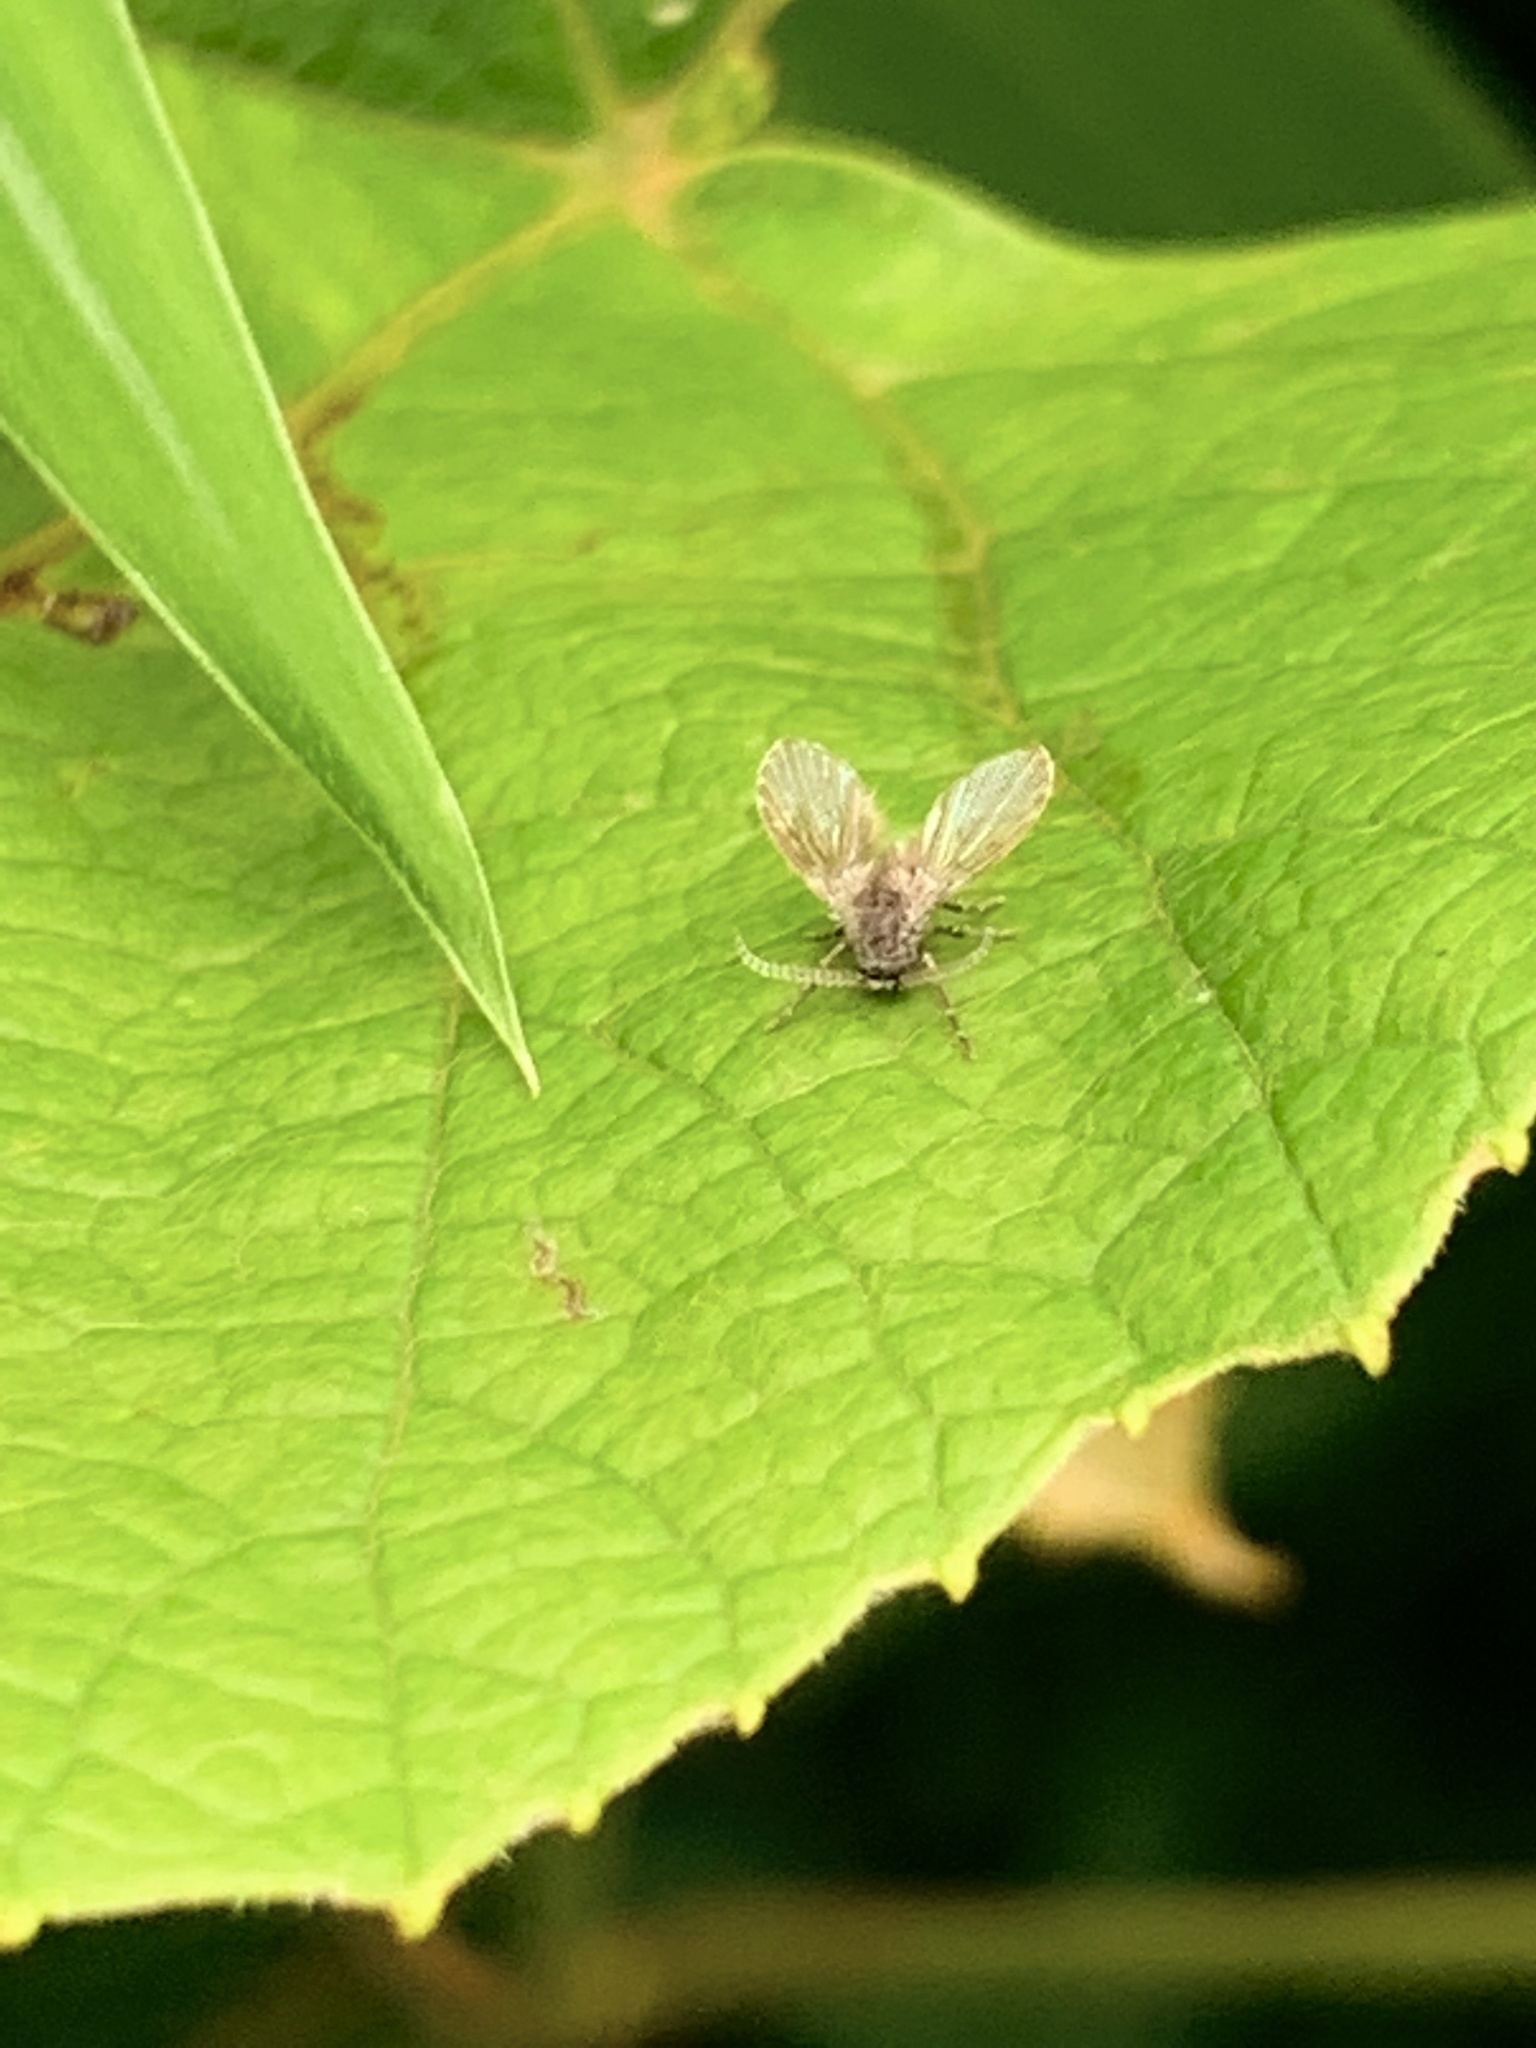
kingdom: Animalia
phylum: Arthropoda
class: Insecta
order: Diptera
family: Psychodidae
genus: Clogmia
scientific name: Clogmia albipunctatus
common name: White-spotted moth fly
